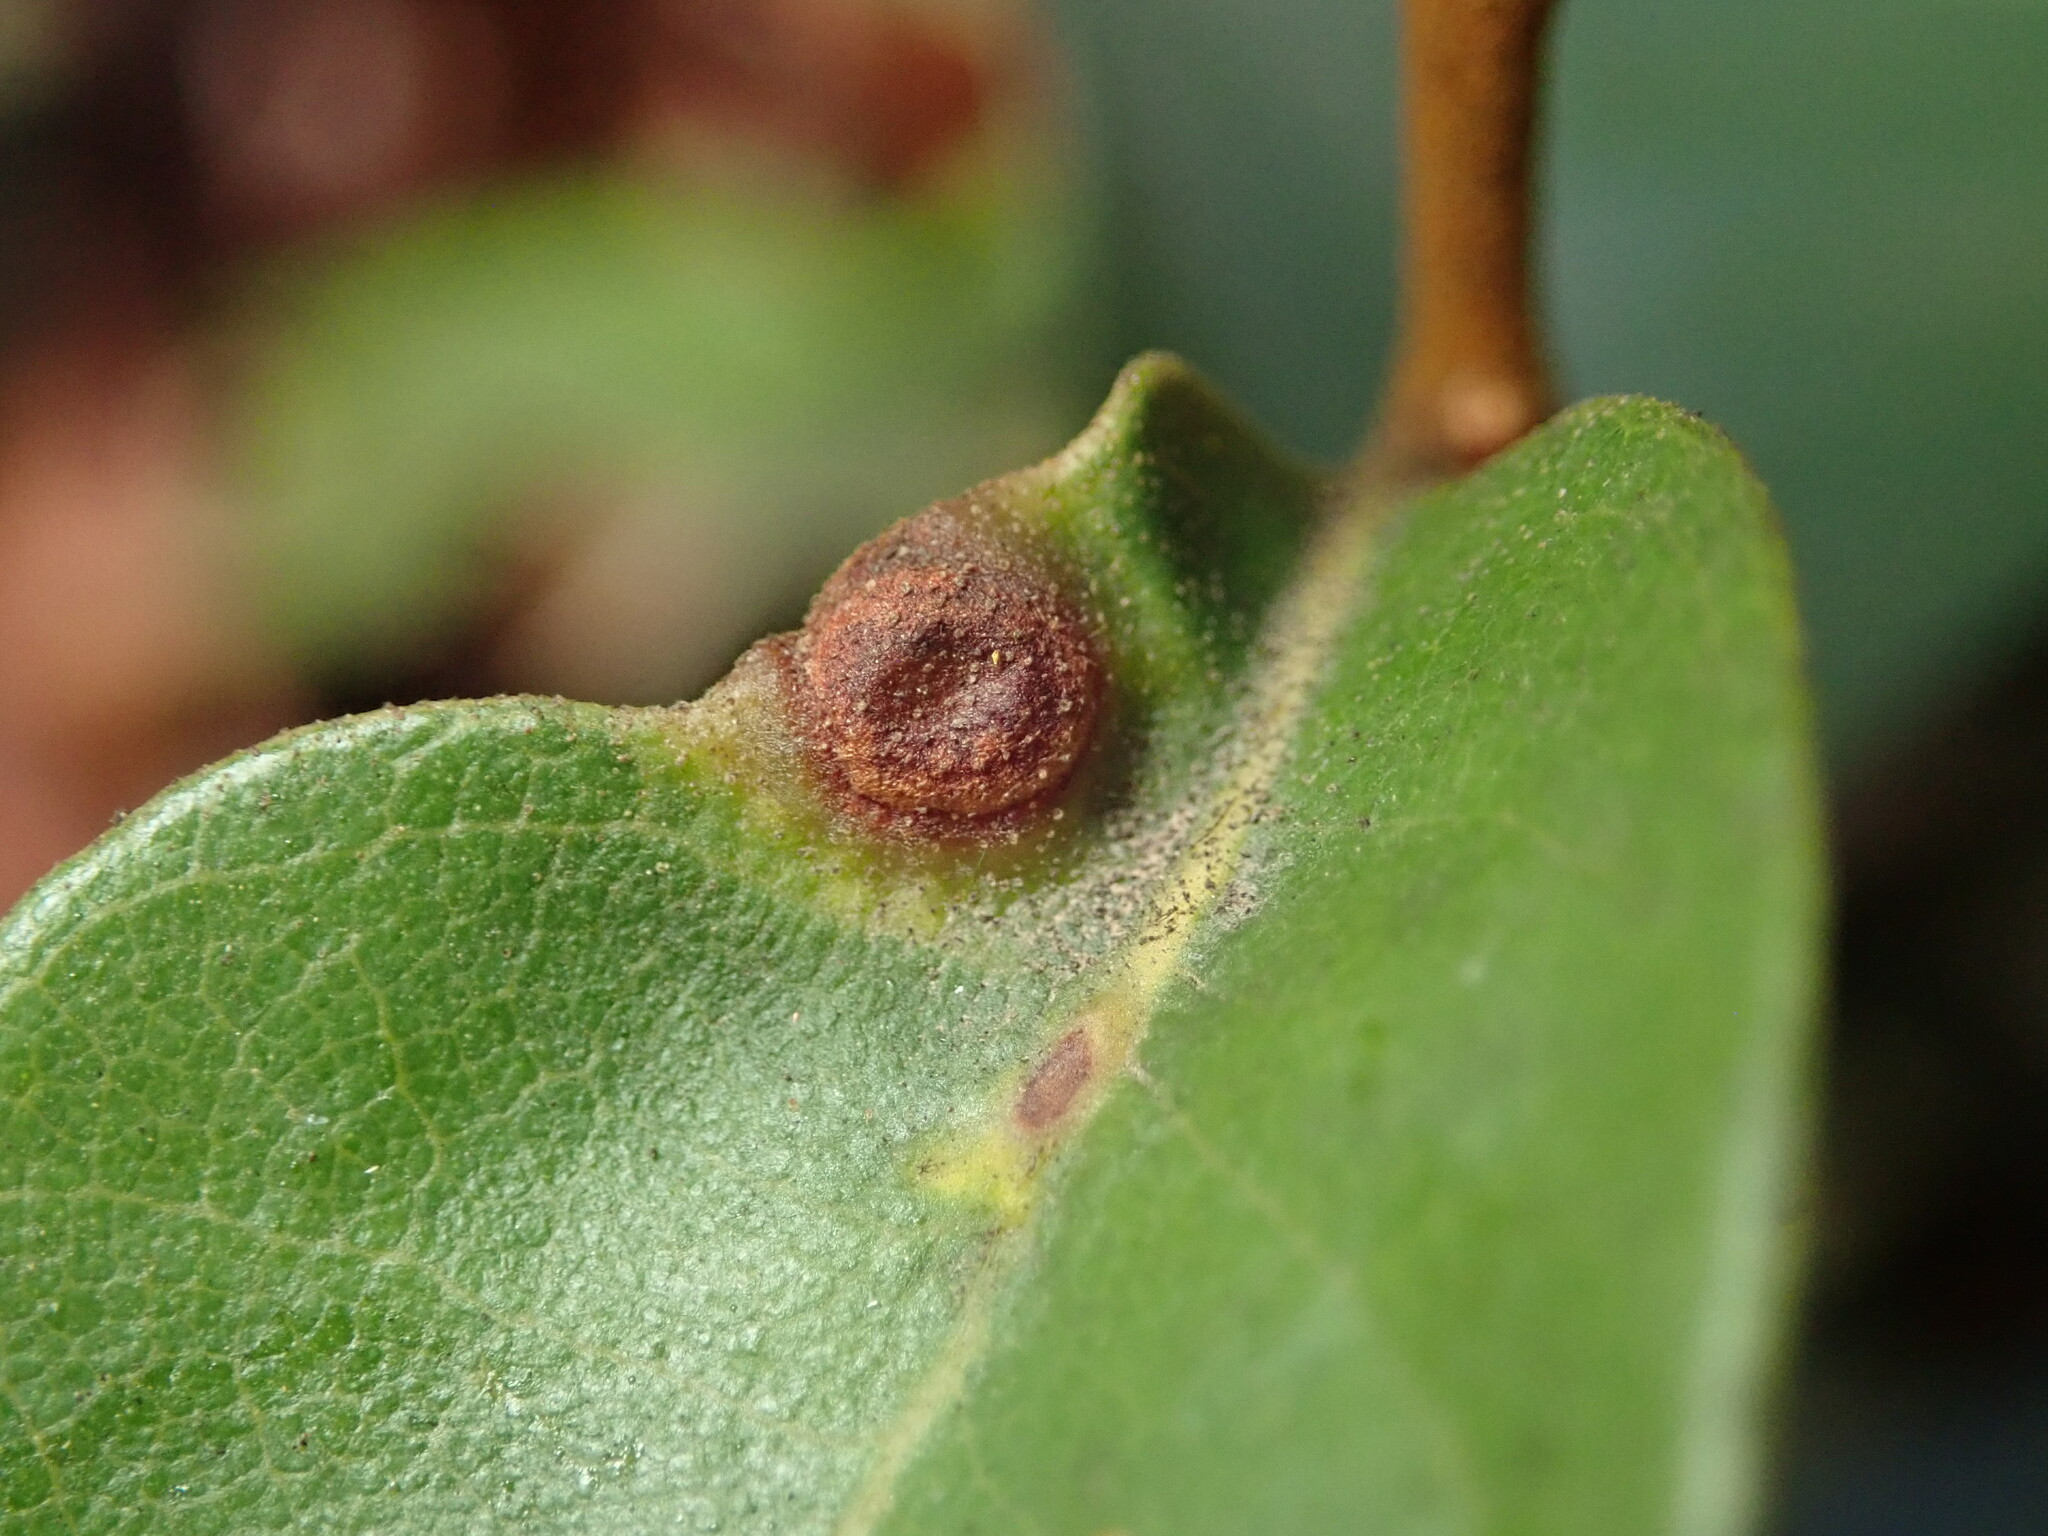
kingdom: Animalia
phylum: Arthropoda
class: Insecta
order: Hymenoptera
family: Cynipidae
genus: Dryocosmus
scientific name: Dryocosmus juliae
